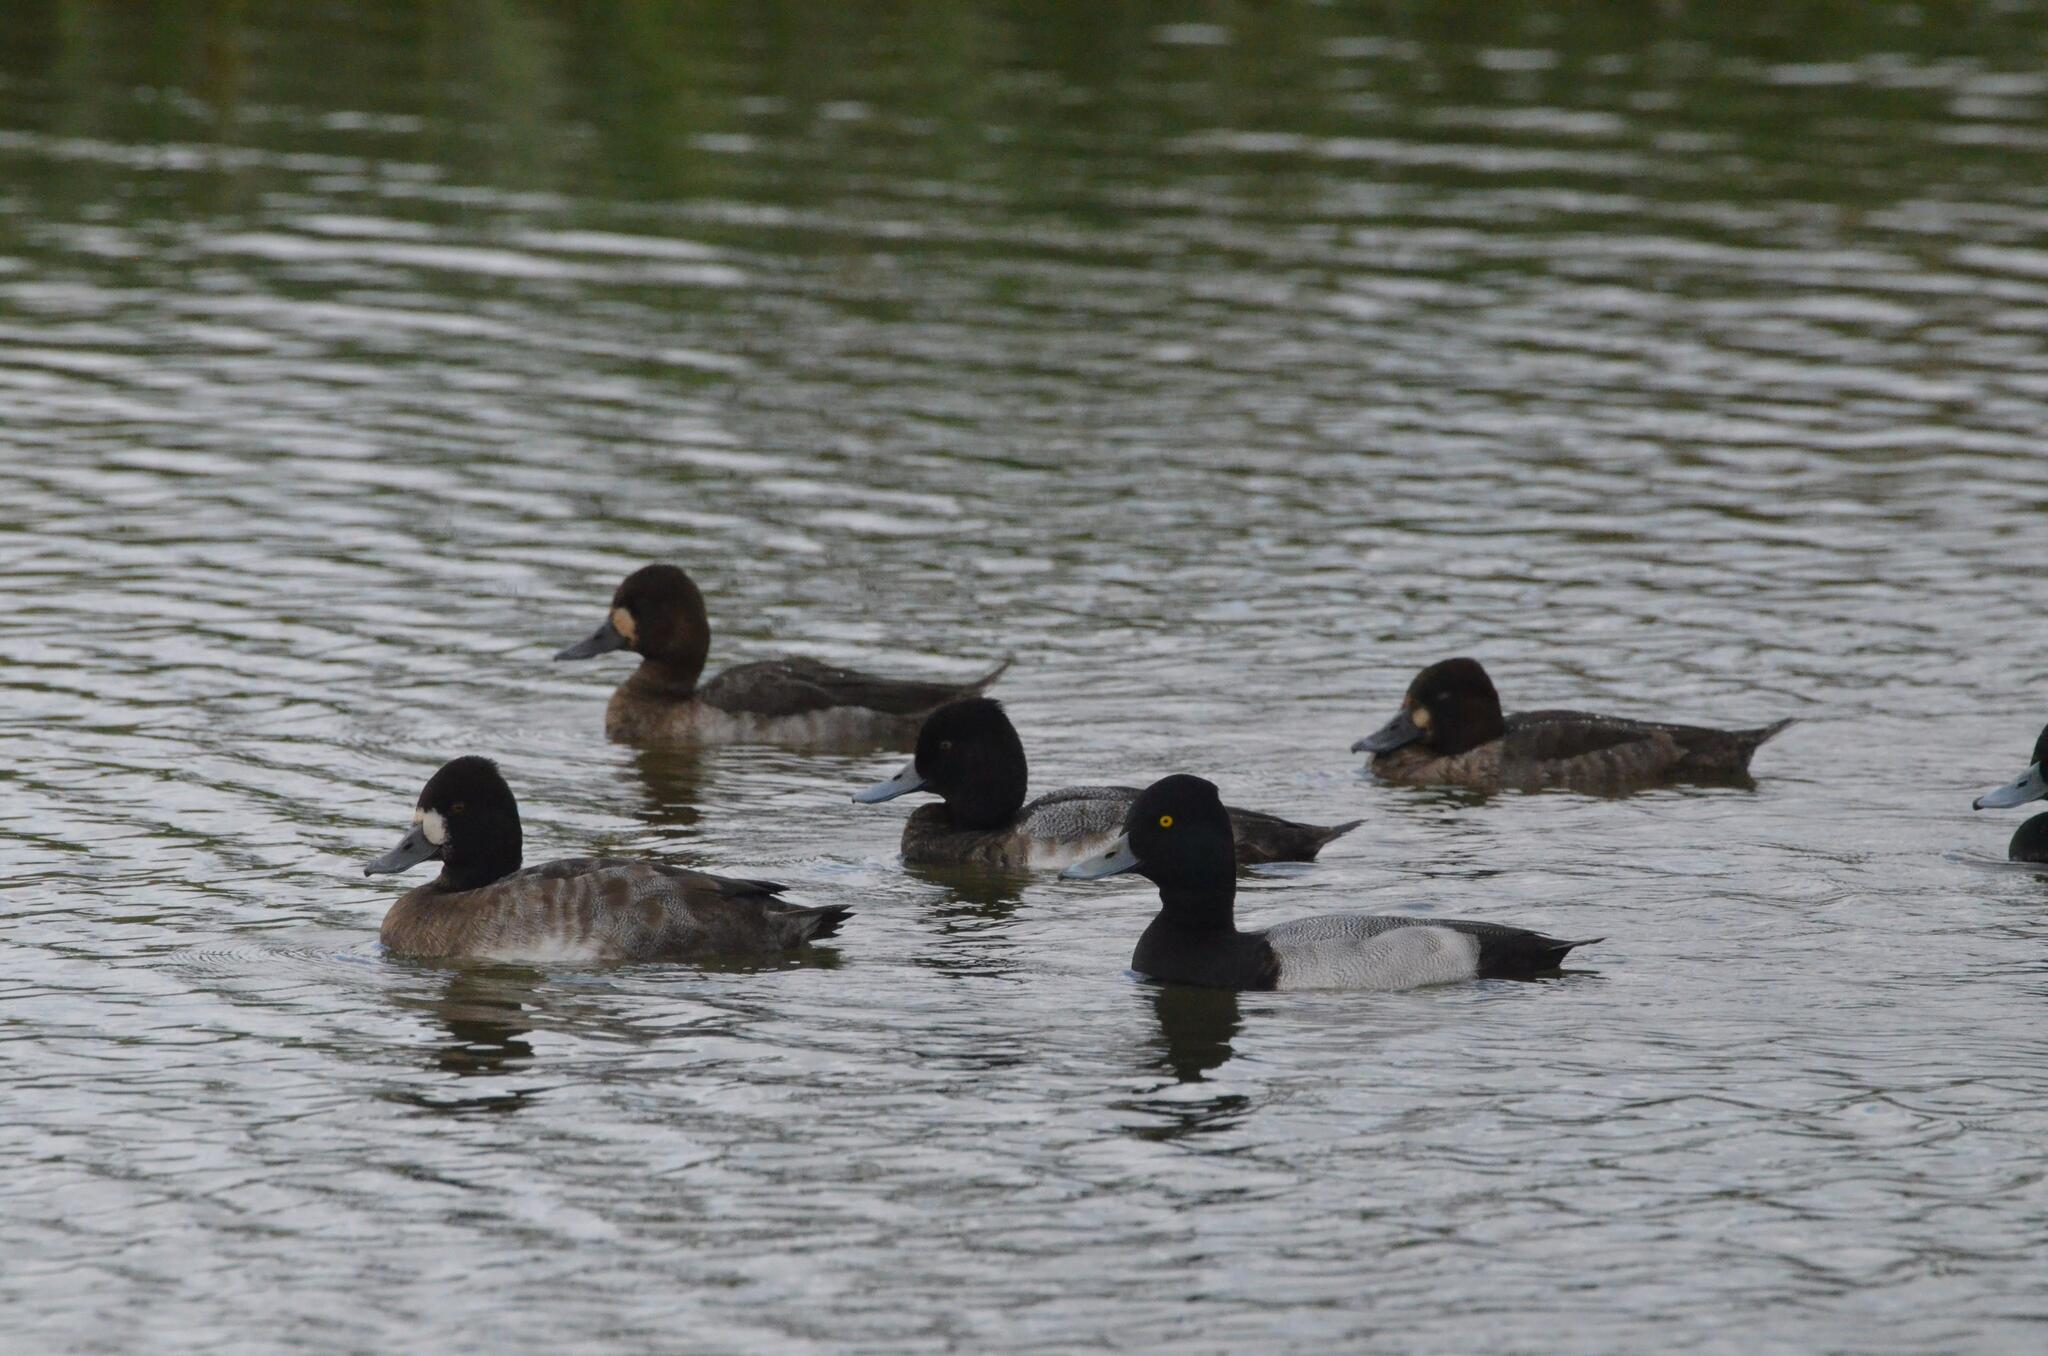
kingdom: Animalia
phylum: Chordata
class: Aves
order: Anseriformes
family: Anatidae
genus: Aythya
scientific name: Aythya affinis
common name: Lesser scaup
